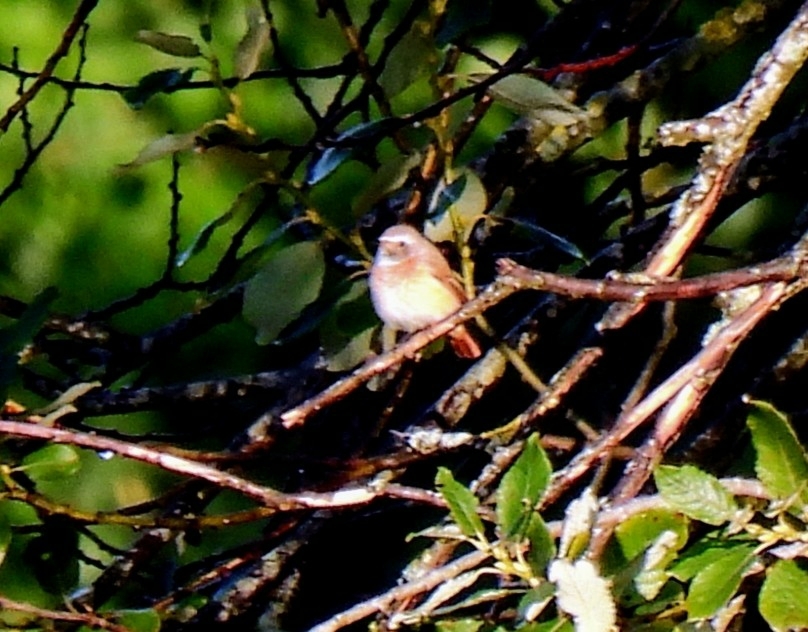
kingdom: Animalia
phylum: Chordata
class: Aves
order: Passeriformes
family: Muscicapidae
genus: Phoenicurus
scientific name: Phoenicurus phoenicurus
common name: Common redstart
